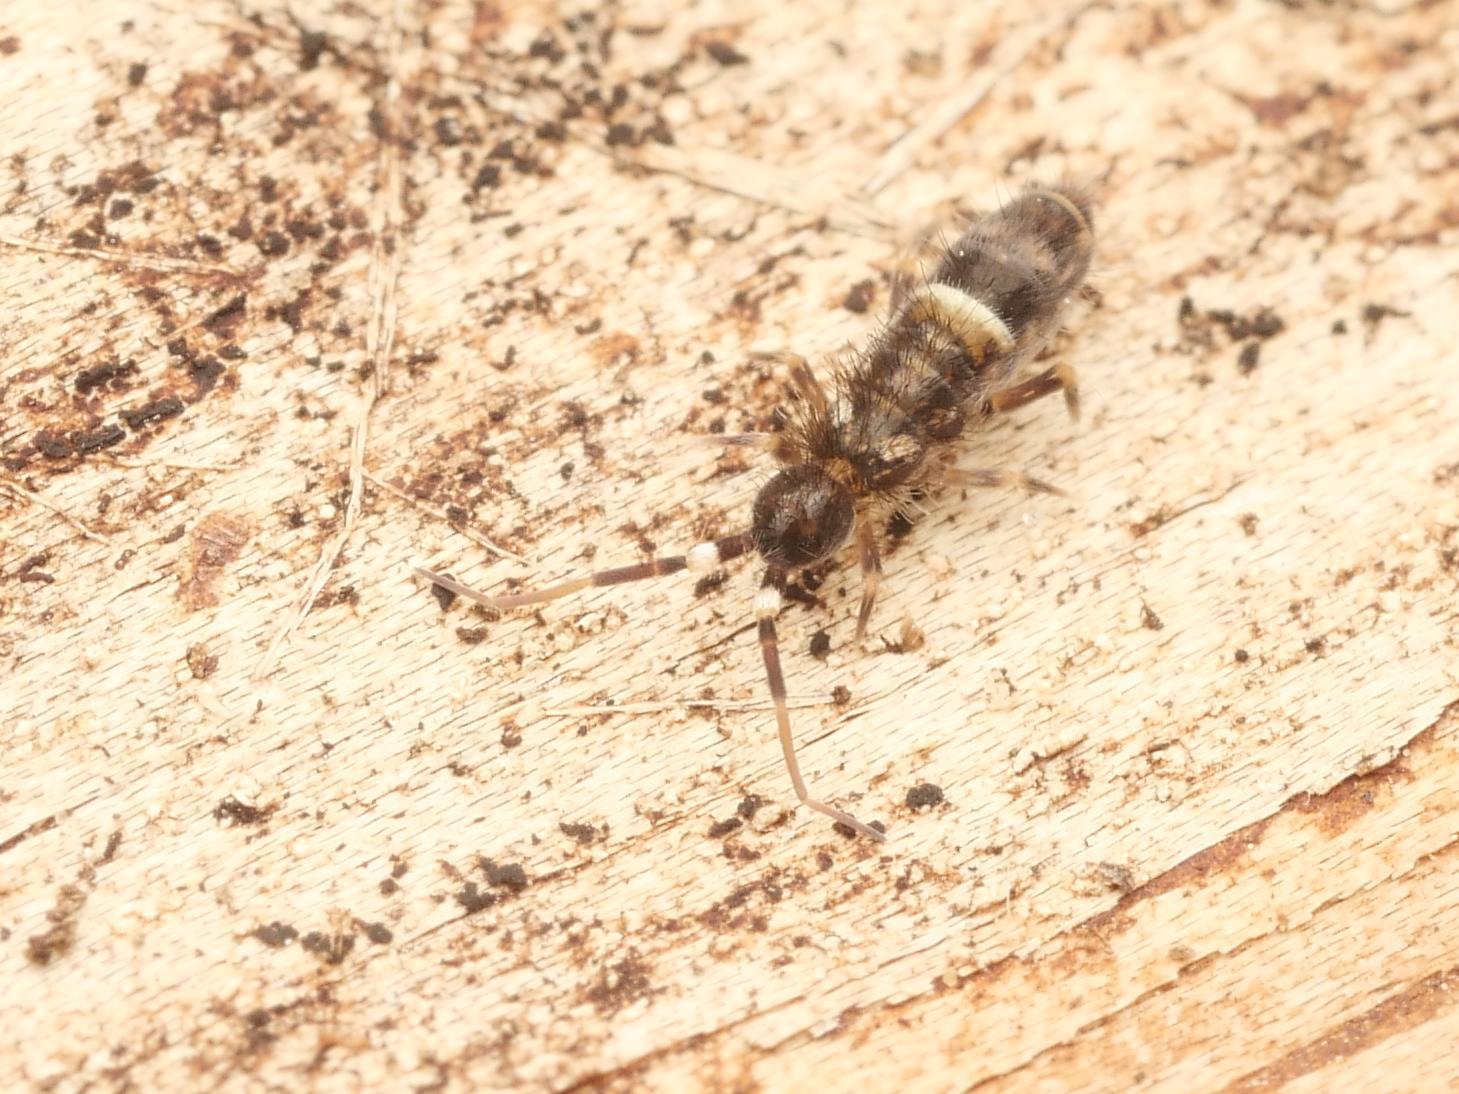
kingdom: Animalia
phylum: Arthropoda
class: Collembola
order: Entomobryomorpha
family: Orchesellidae
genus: Orchesella
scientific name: Orchesella cincta
